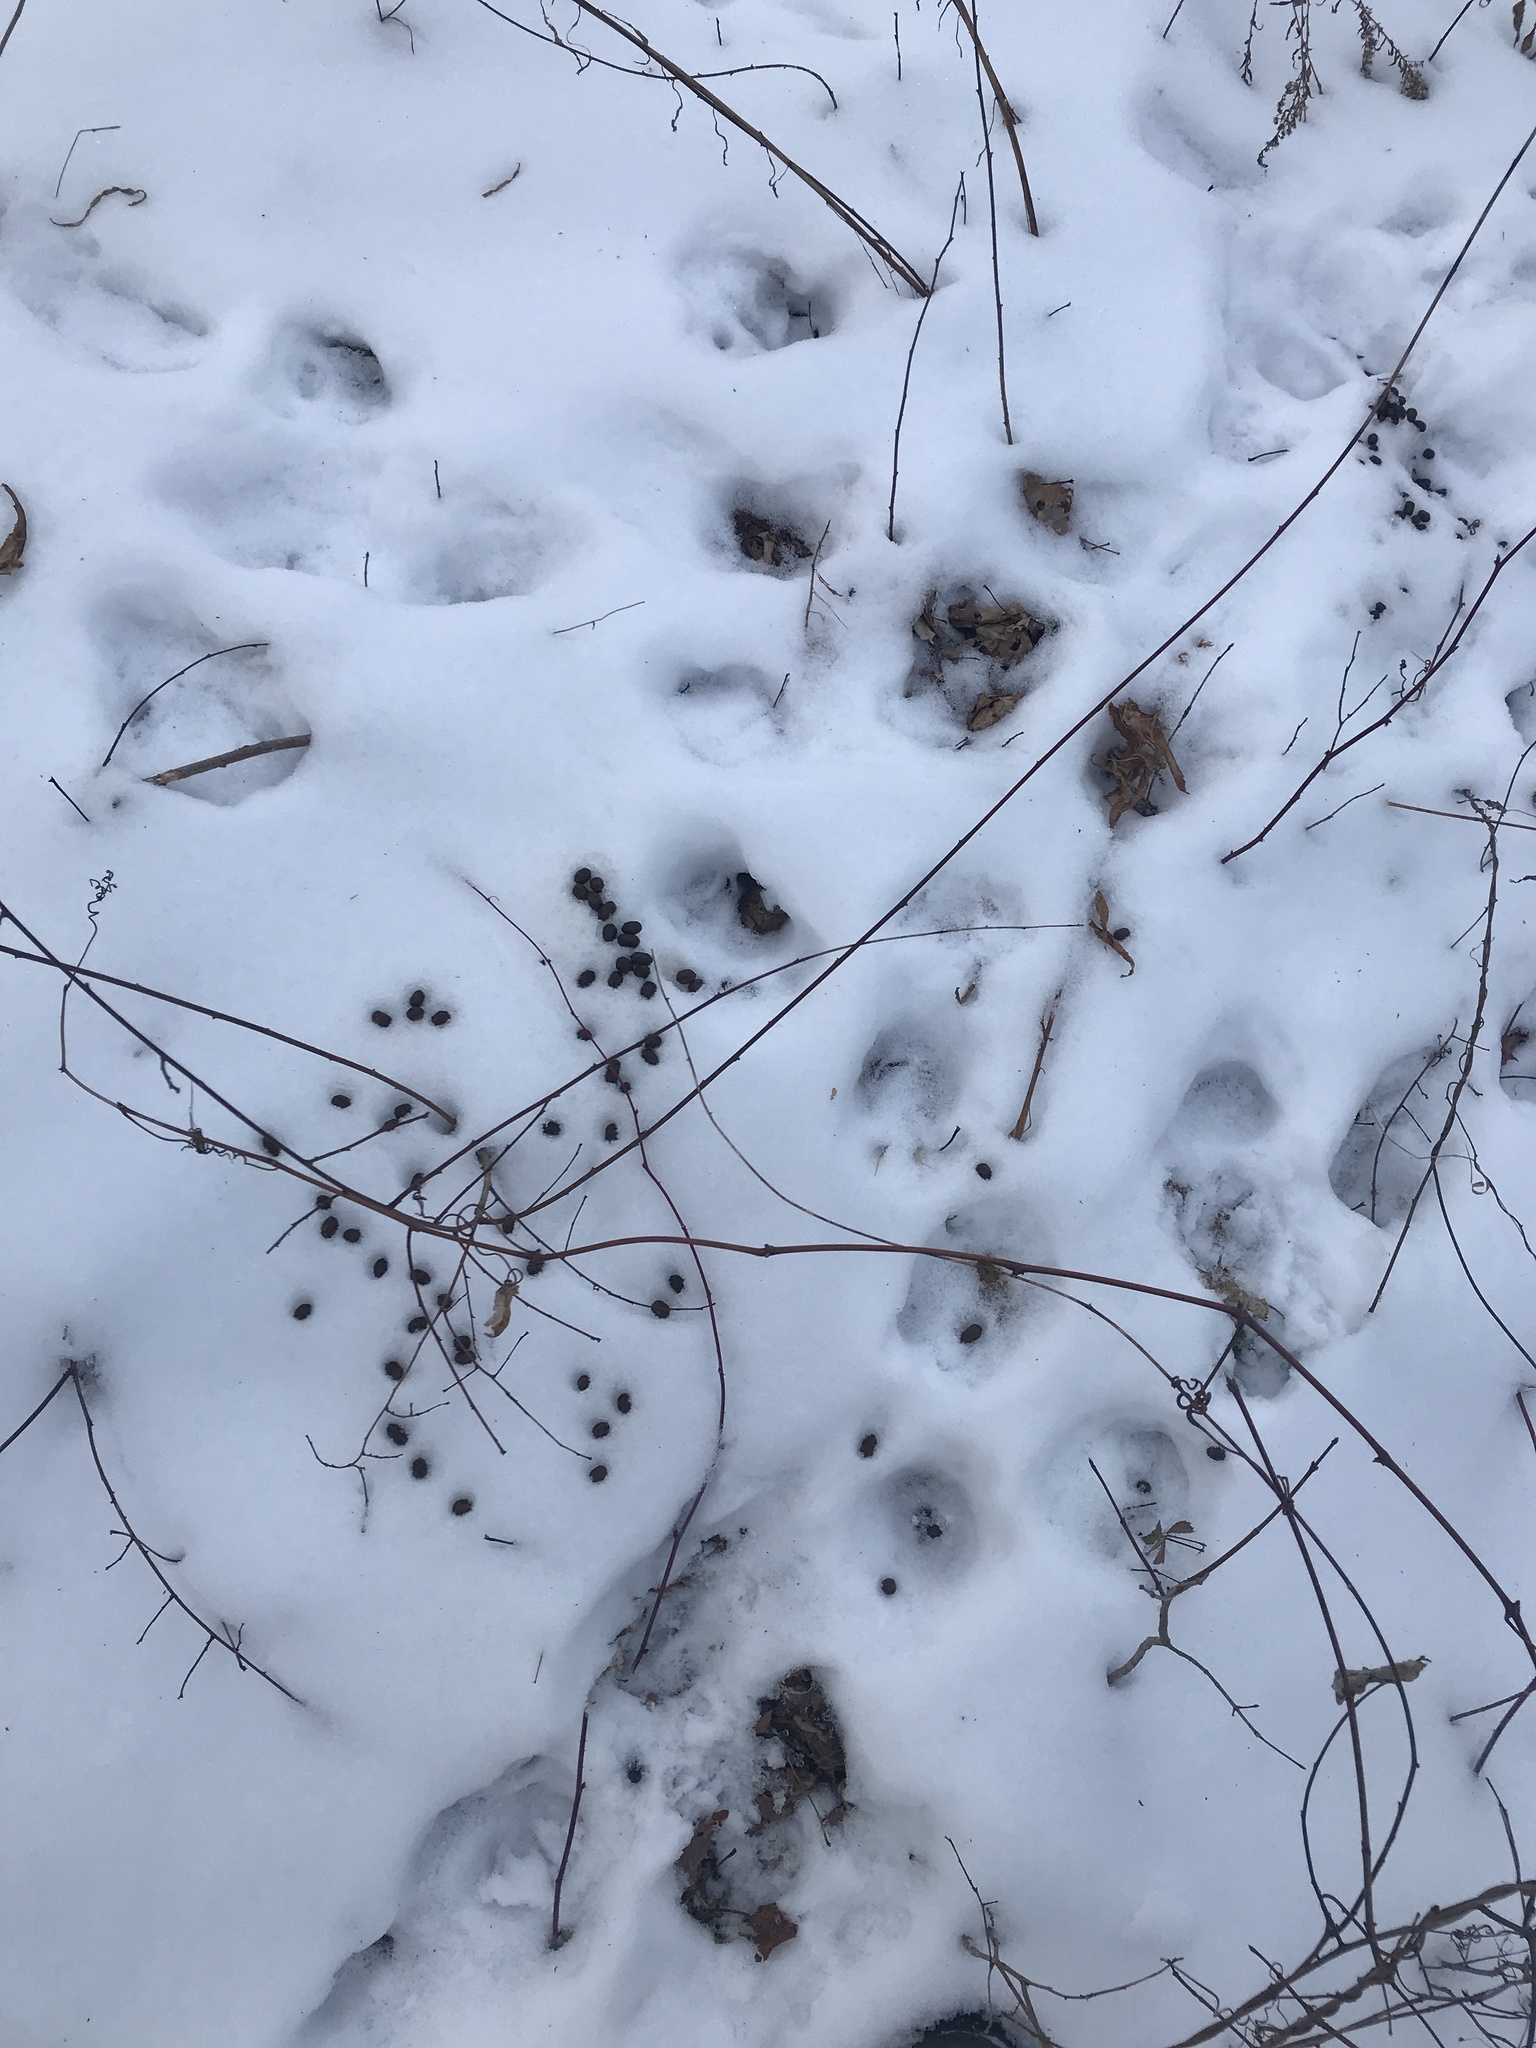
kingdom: Animalia
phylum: Chordata
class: Mammalia
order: Artiodactyla
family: Cervidae
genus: Odocoileus
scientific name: Odocoileus virginianus
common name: White-tailed deer
